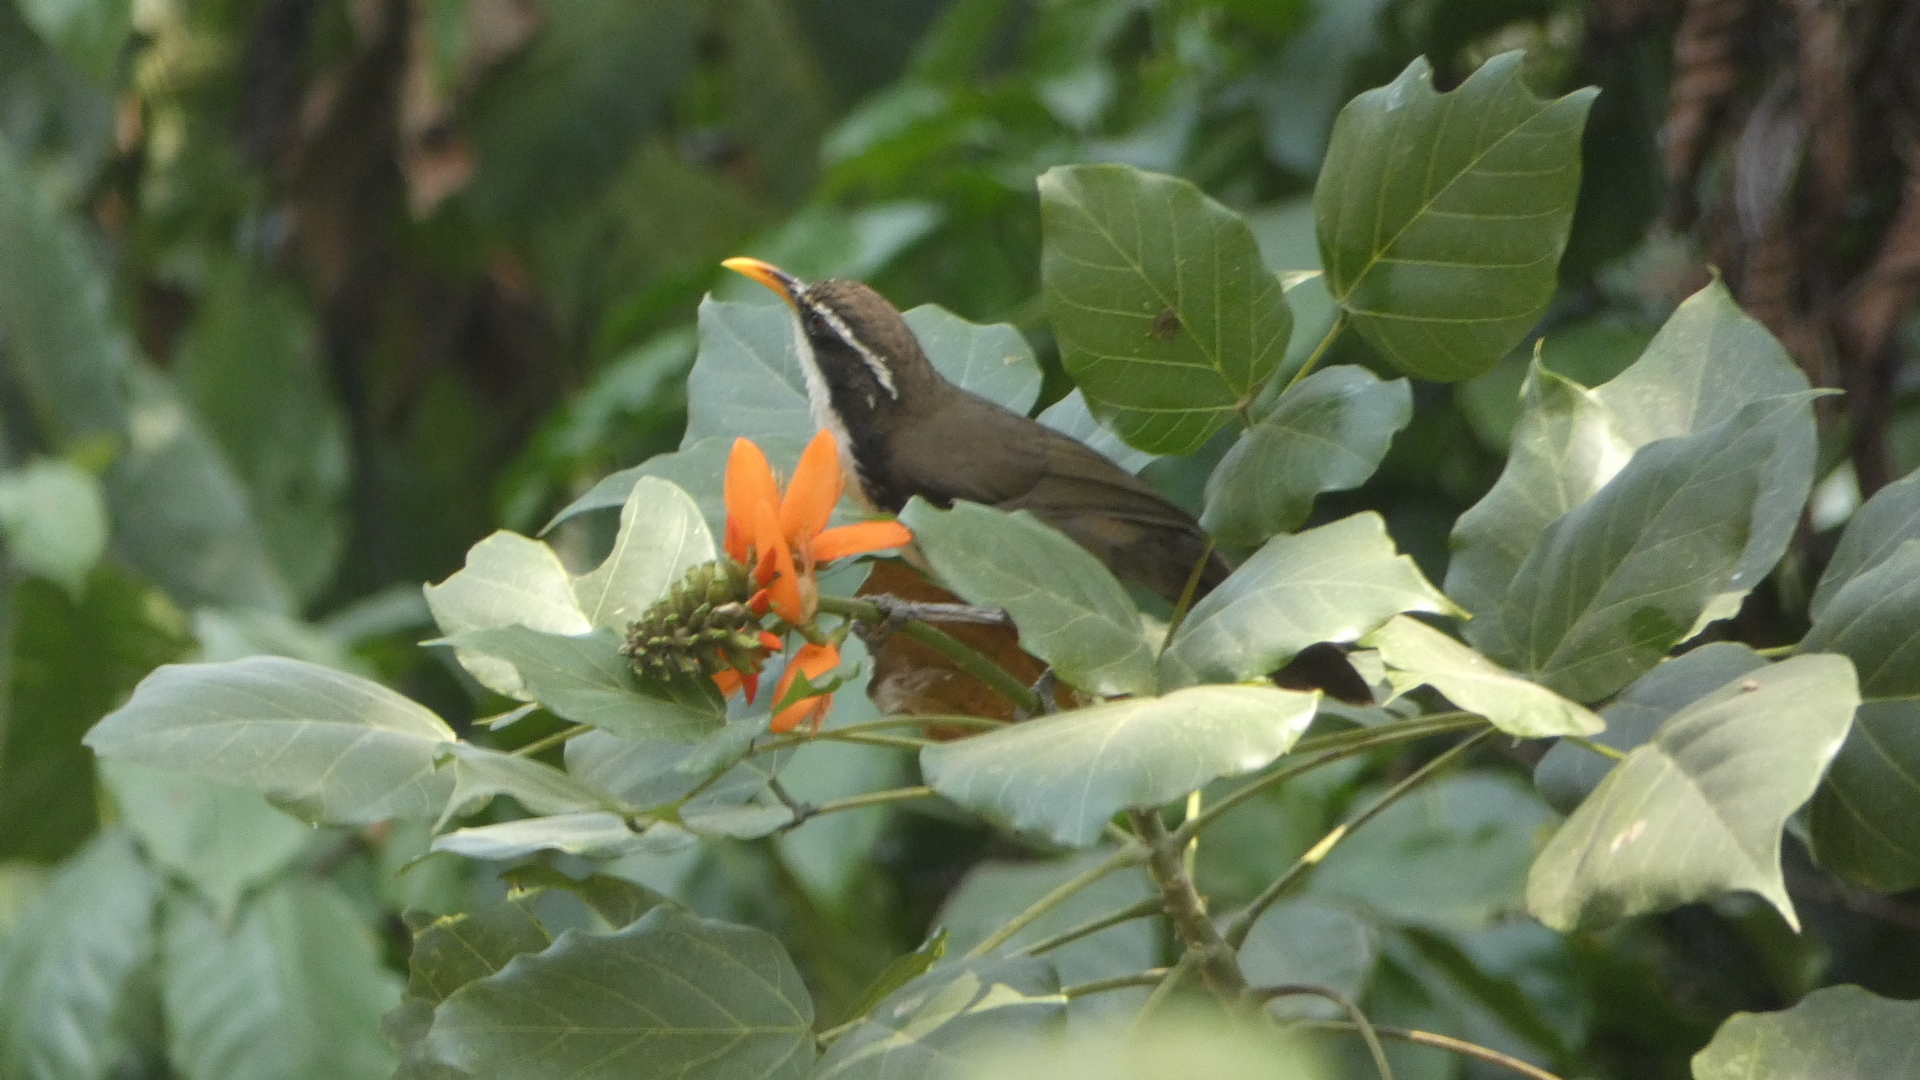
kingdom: Animalia
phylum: Chordata
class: Aves
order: Passeriformes
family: Timaliidae
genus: Pomatorhinus
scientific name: Pomatorhinus horsfieldii
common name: Indian scimitar babbler
